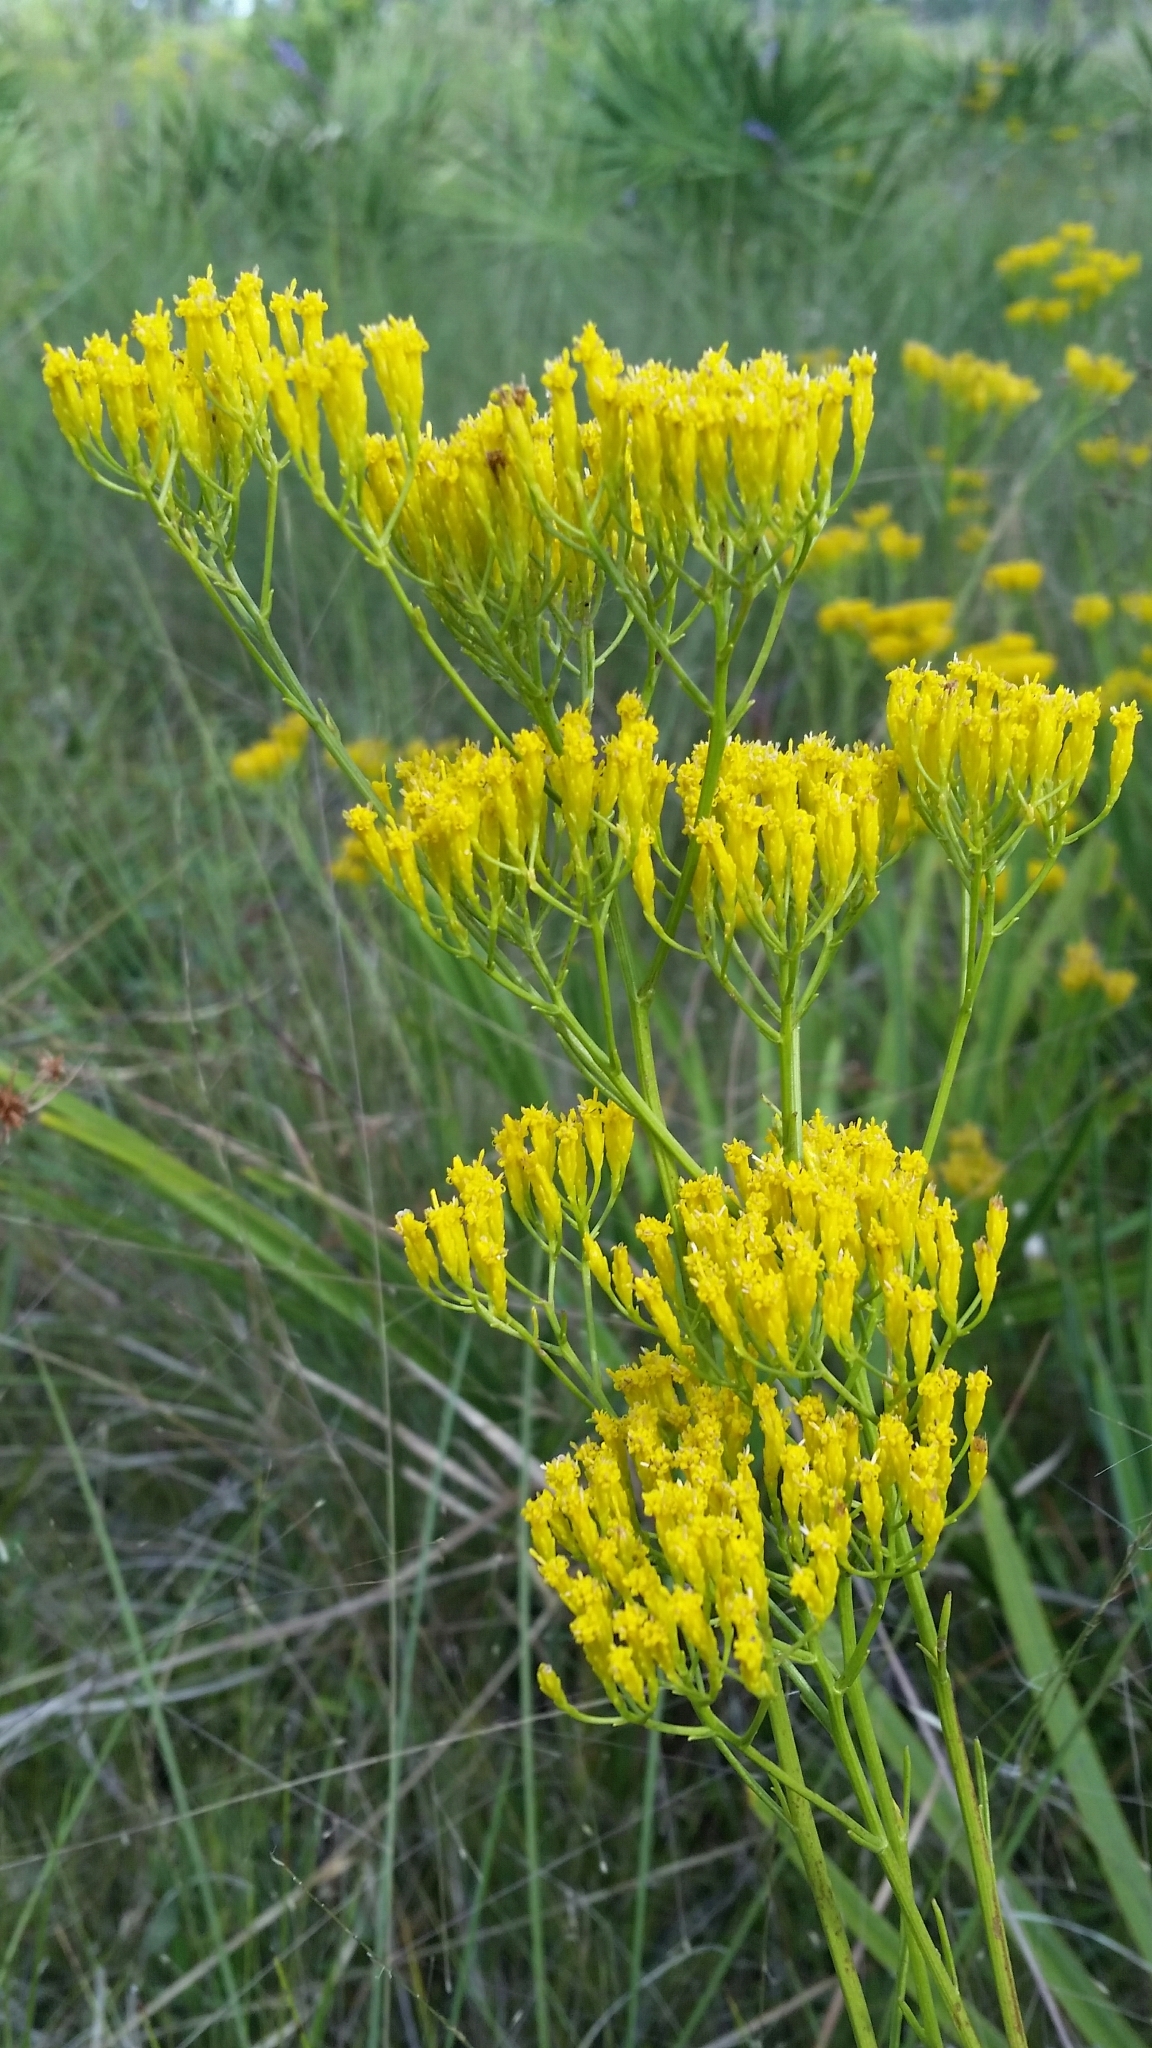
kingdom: Plantae
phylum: Tracheophyta
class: Magnoliopsida
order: Asterales
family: Asteraceae
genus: Bigelowia
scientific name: Bigelowia australis
